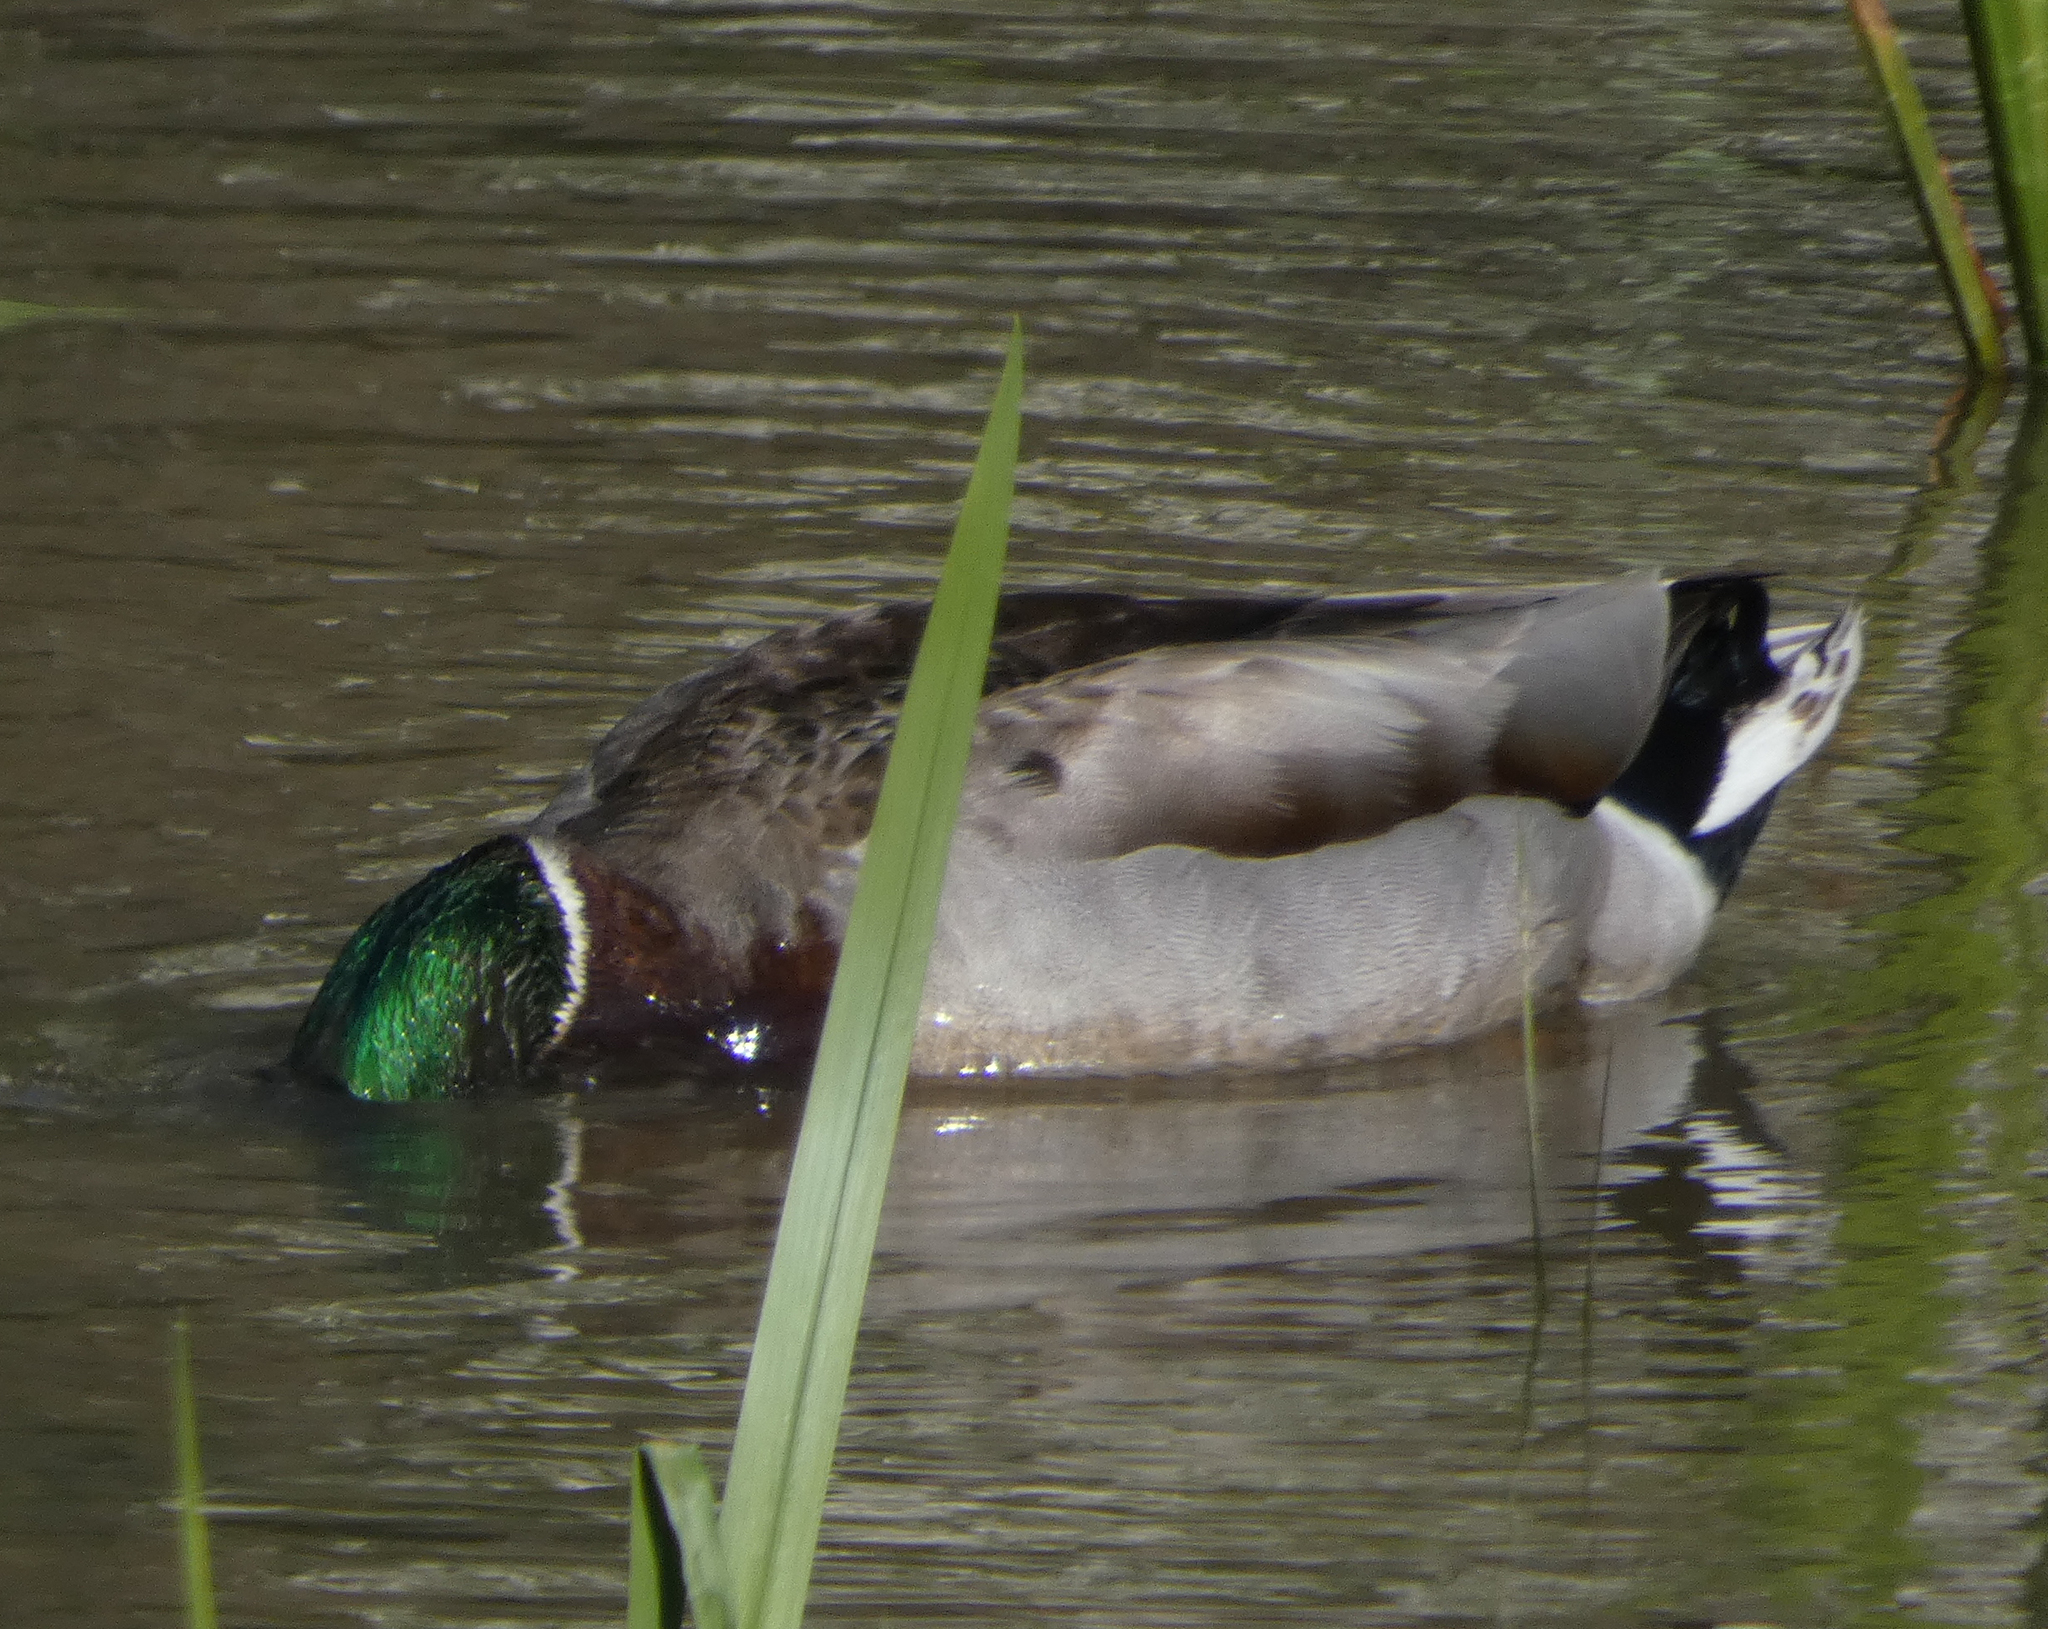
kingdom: Animalia
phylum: Chordata
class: Aves
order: Anseriformes
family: Anatidae
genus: Anas
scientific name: Anas platyrhynchos
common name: Mallard
